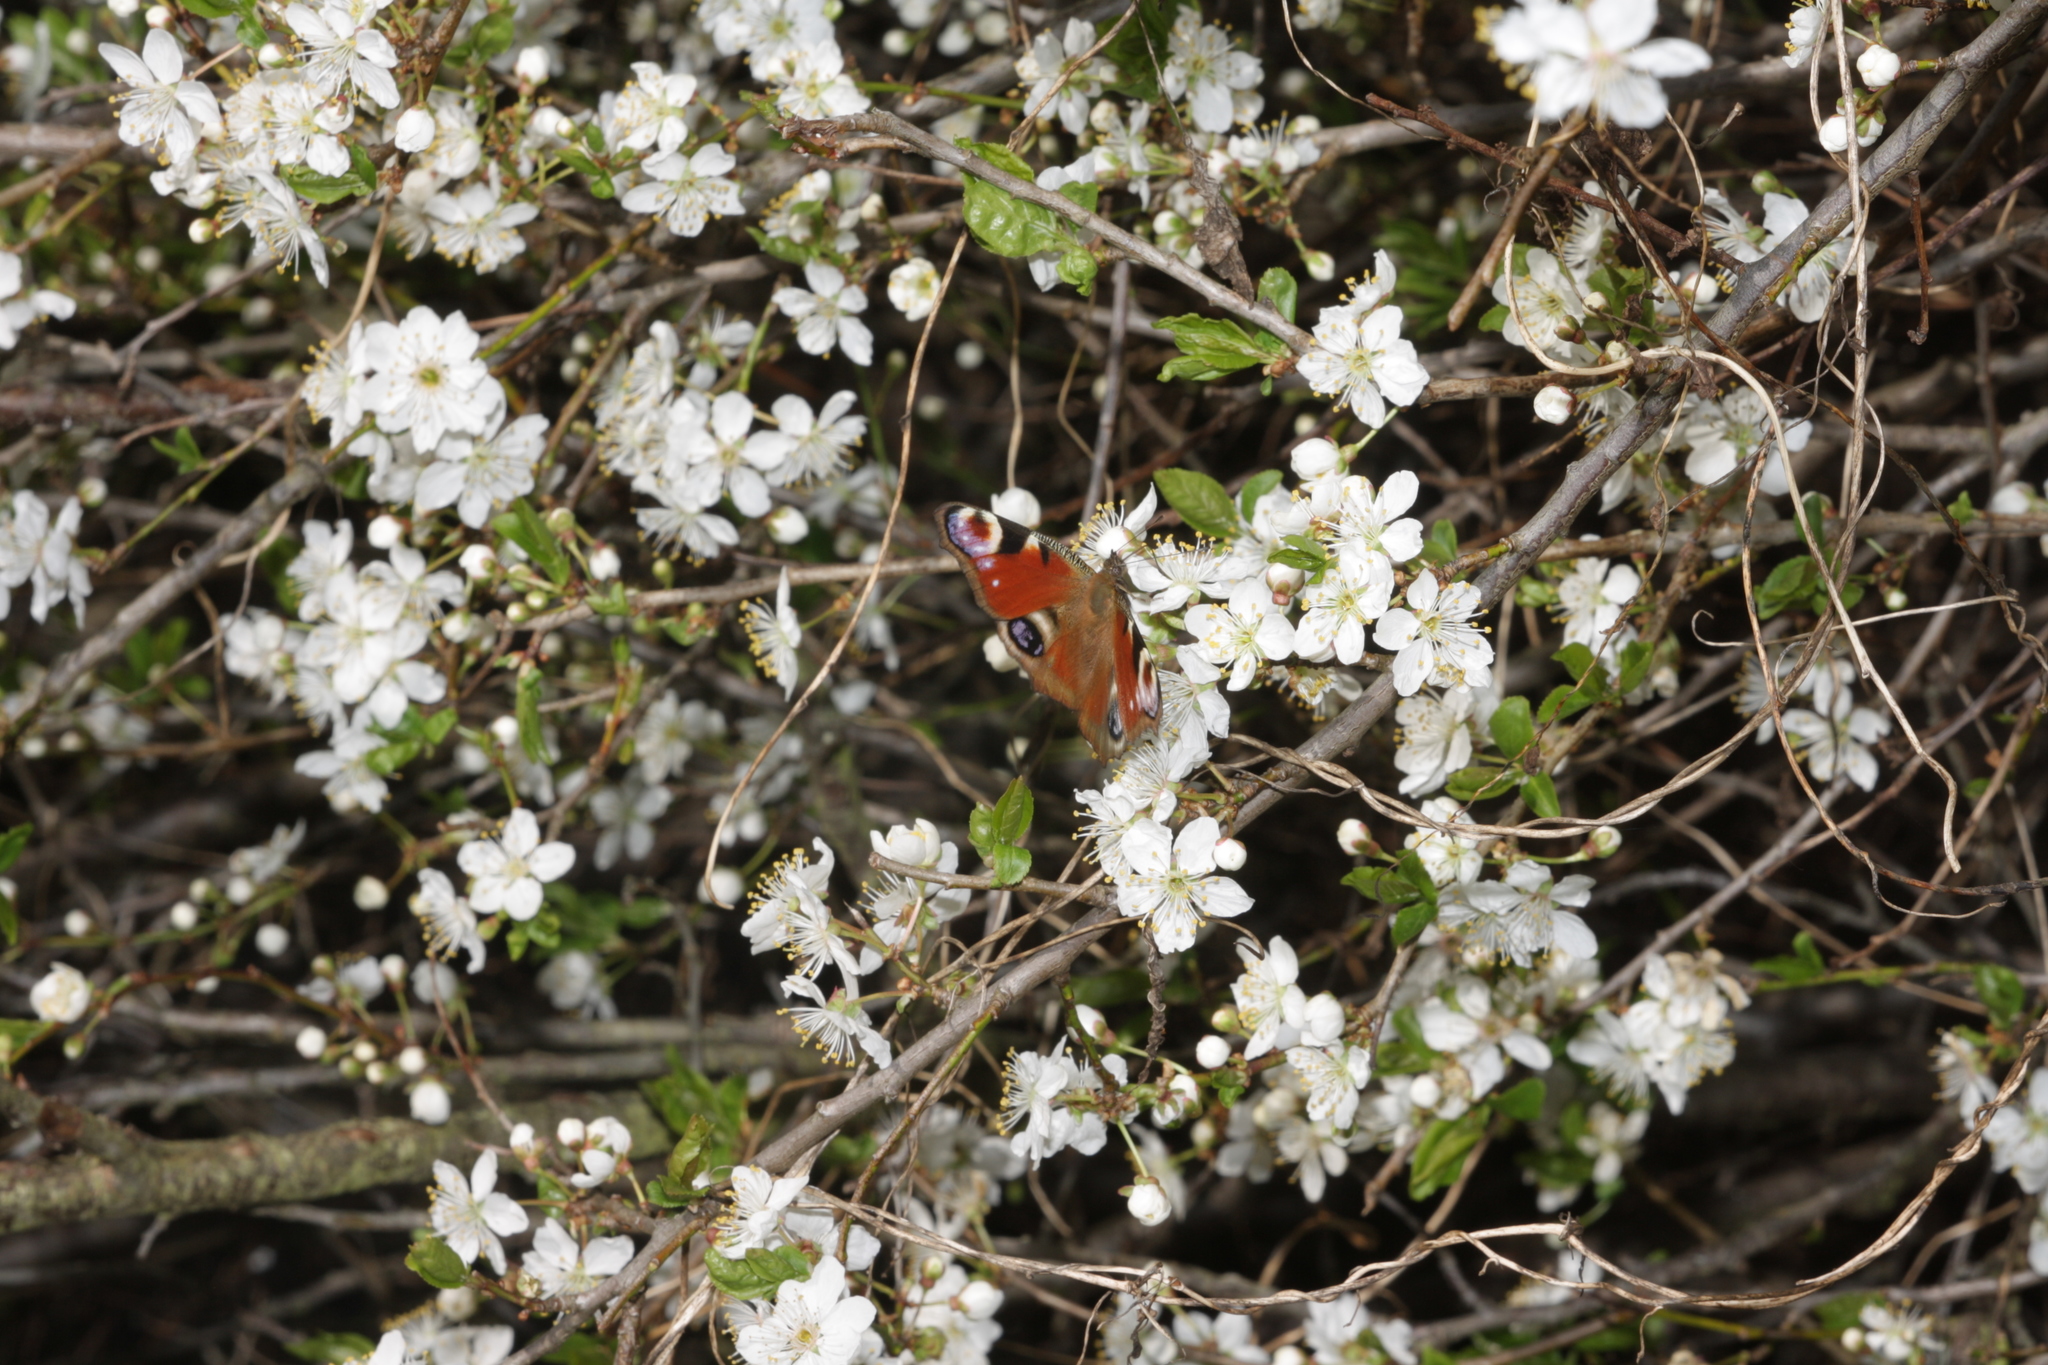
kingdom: Animalia
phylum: Arthropoda
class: Insecta
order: Lepidoptera
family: Nymphalidae
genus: Aglais
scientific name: Aglais io
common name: Peacock
